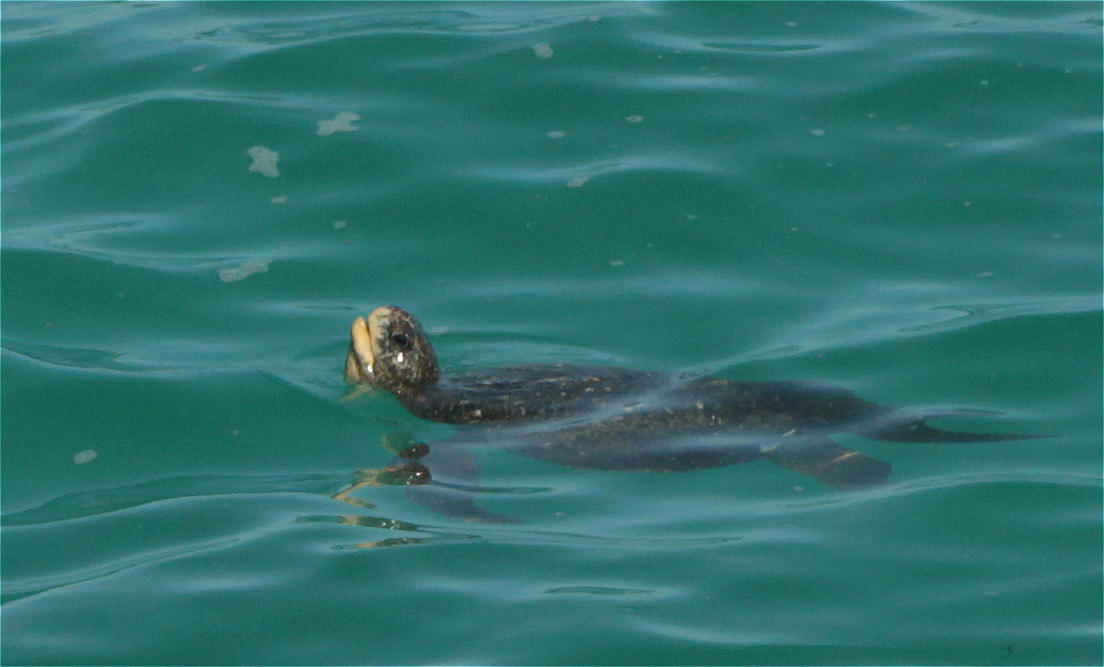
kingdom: Animalia
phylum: Chordata
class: Testudines
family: Cheloniidae
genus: Chelonia
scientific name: Chelonia mydas
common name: Green turtle
